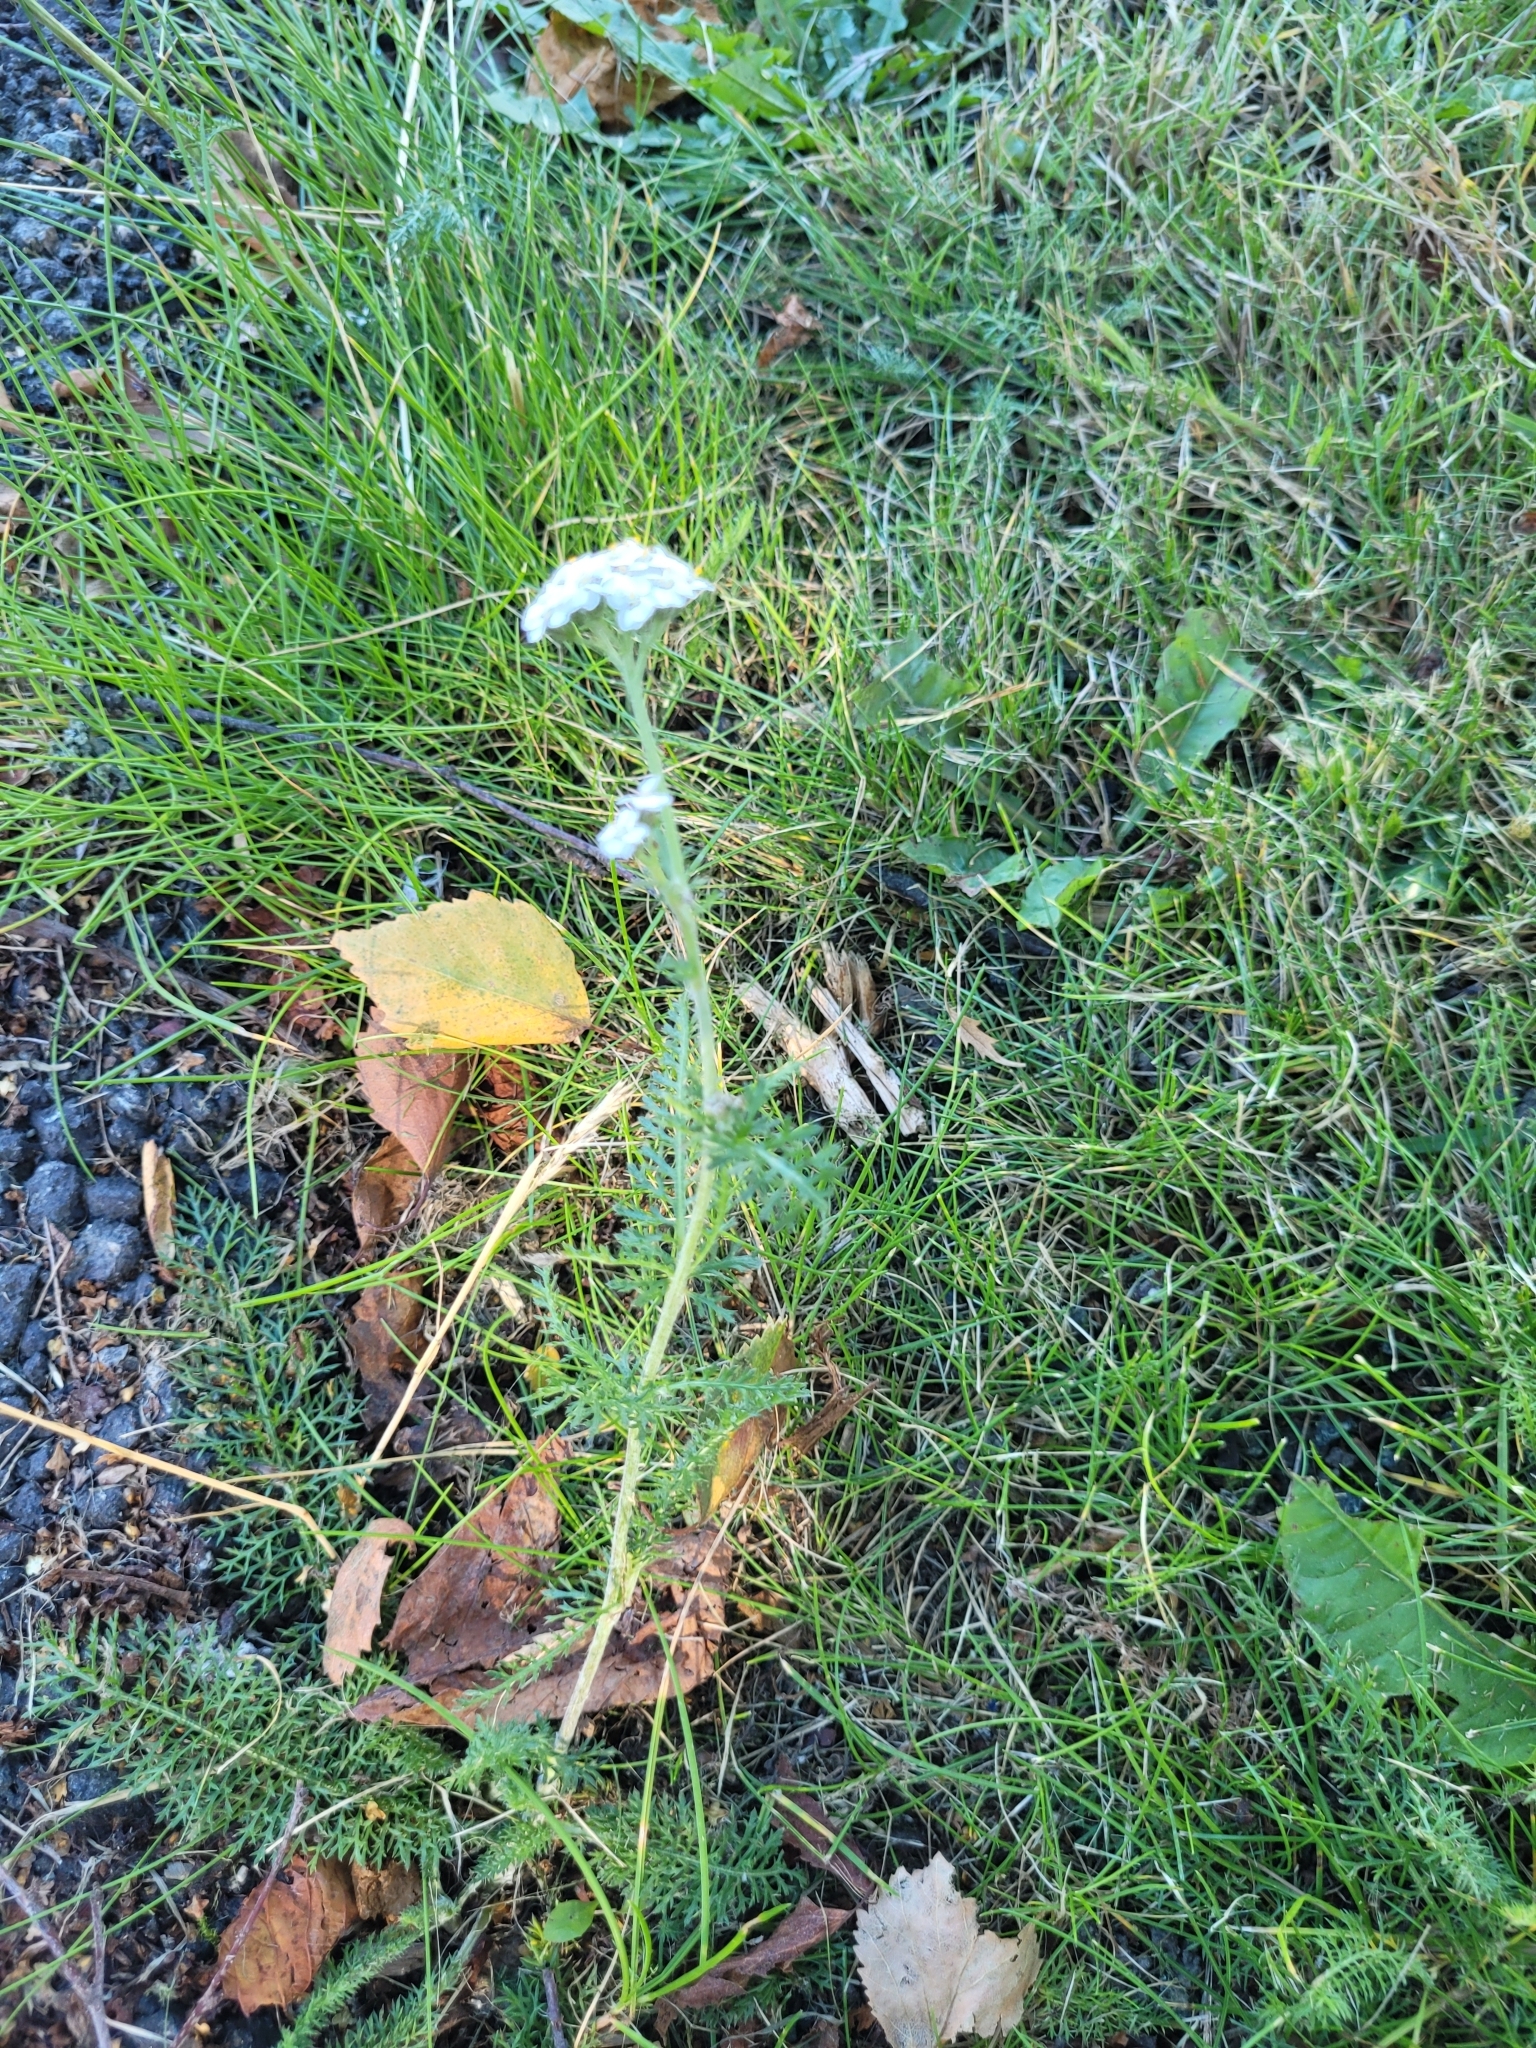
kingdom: Plantae
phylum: Tracheophyta
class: Magnoliopsida
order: Asterales
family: Asteraceae
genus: Achillea
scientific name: Achillea millefolium
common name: Yarrow
